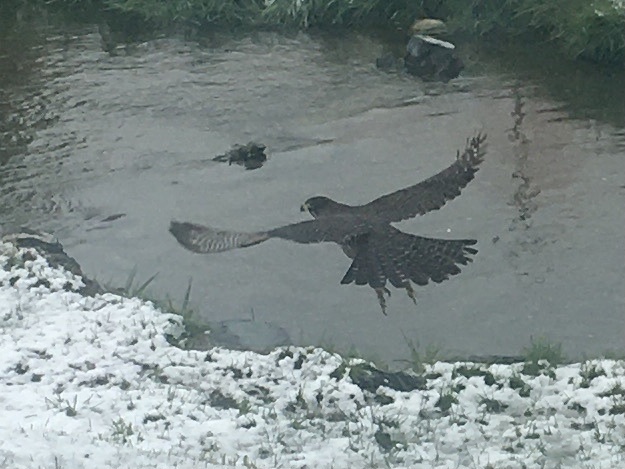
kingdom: Animalia
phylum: Chordata
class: Aves
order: Falconiformes
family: Falconidae
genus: Falco
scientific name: Falco novaeseelandiae
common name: New zealand falcon
